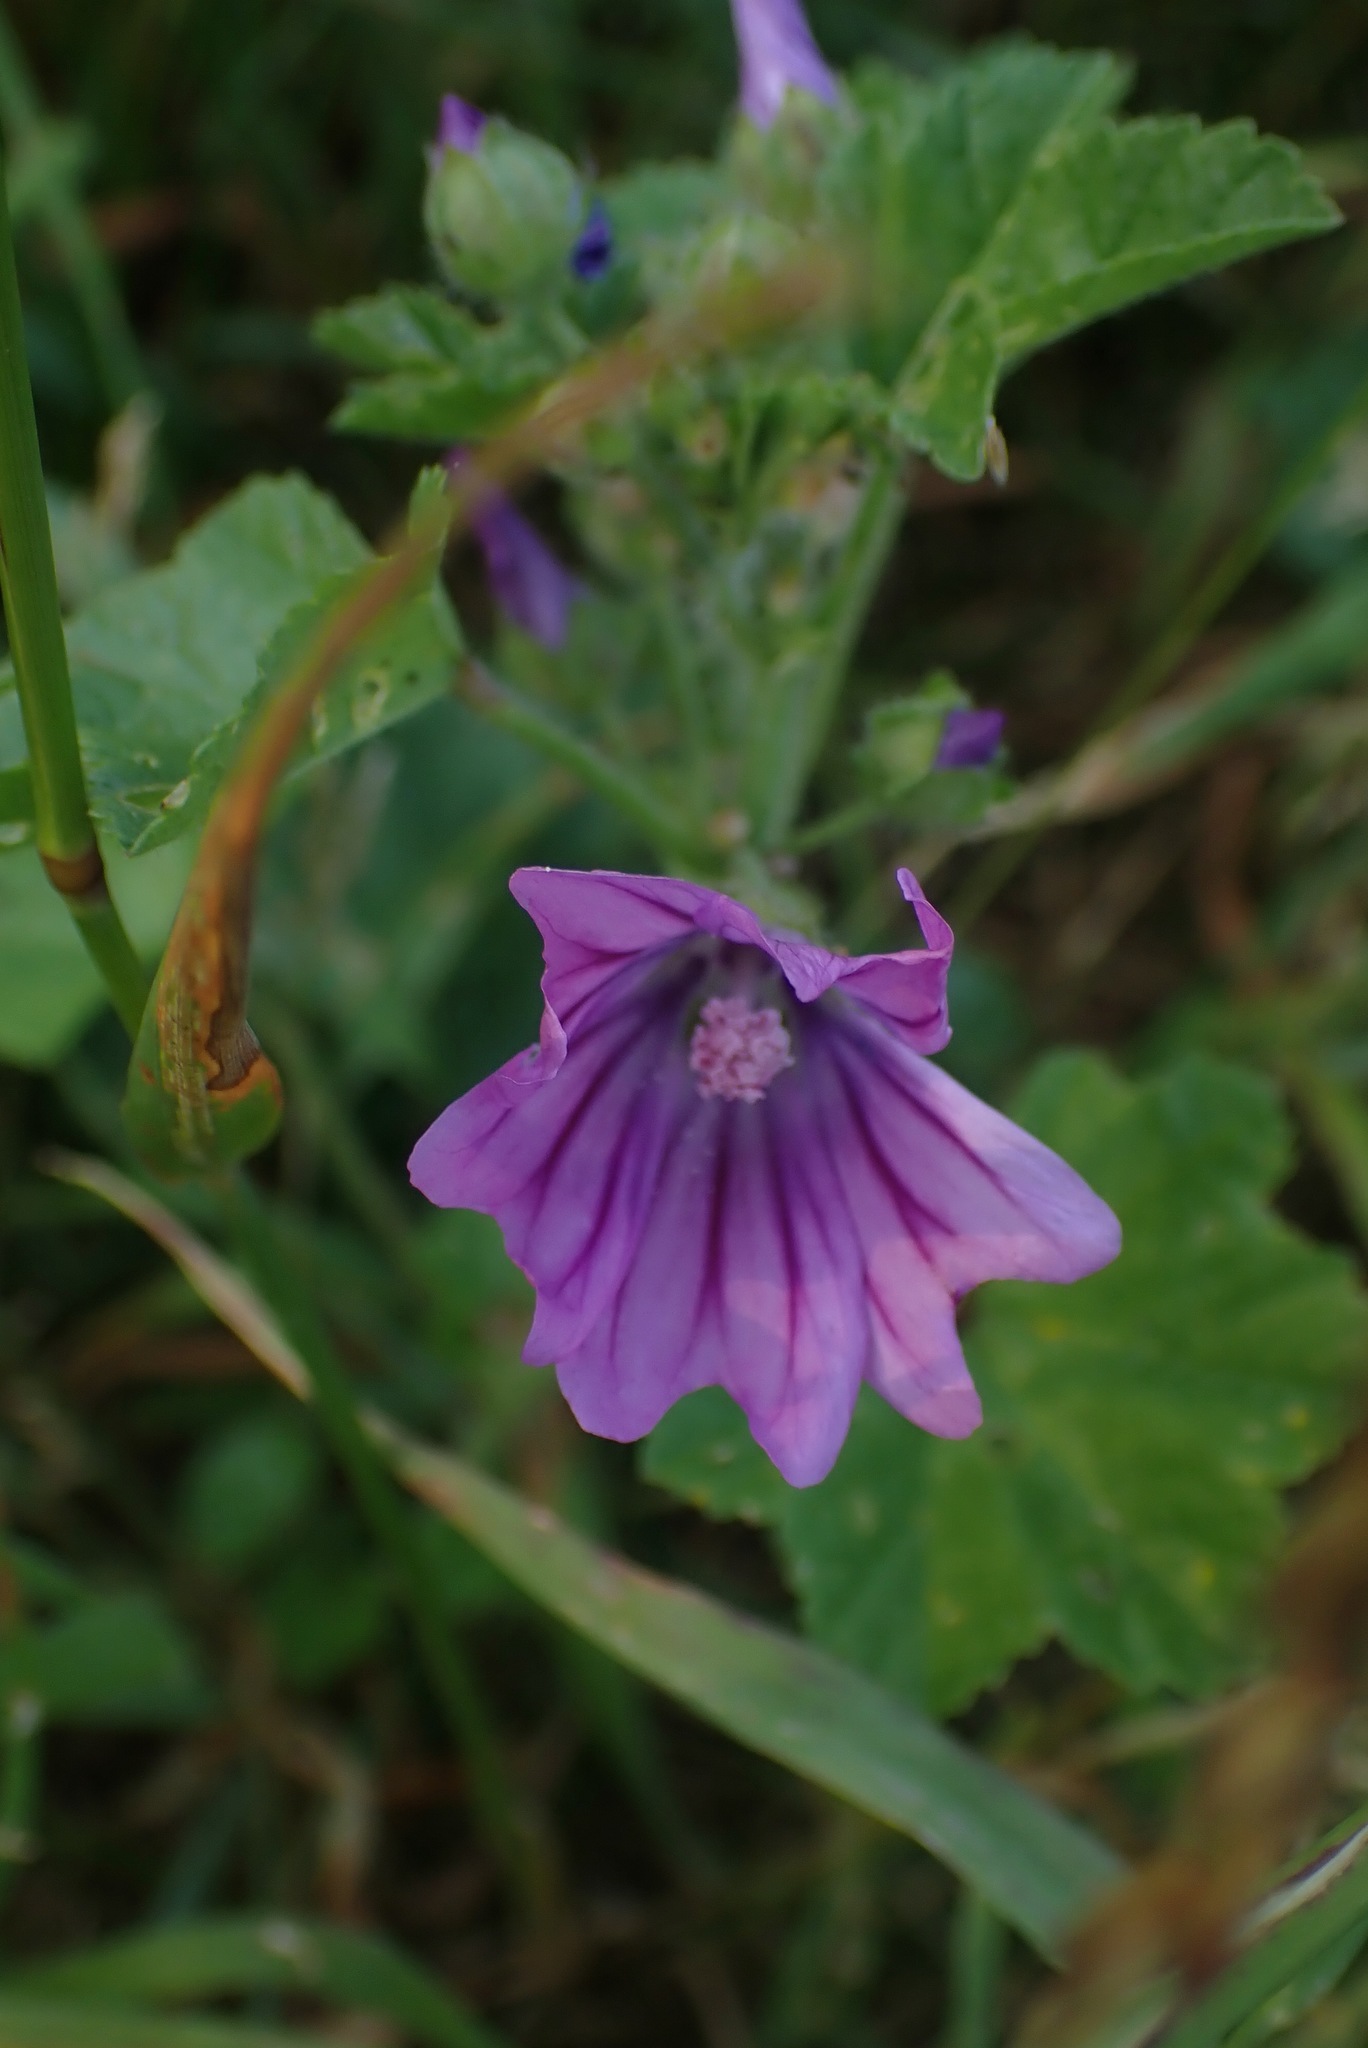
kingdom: Plantae
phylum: Tracheophyta
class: Magnoliopsida
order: Malvales
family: Malvaceae
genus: Malva
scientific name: Malva sylvestris
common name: Common mallow
